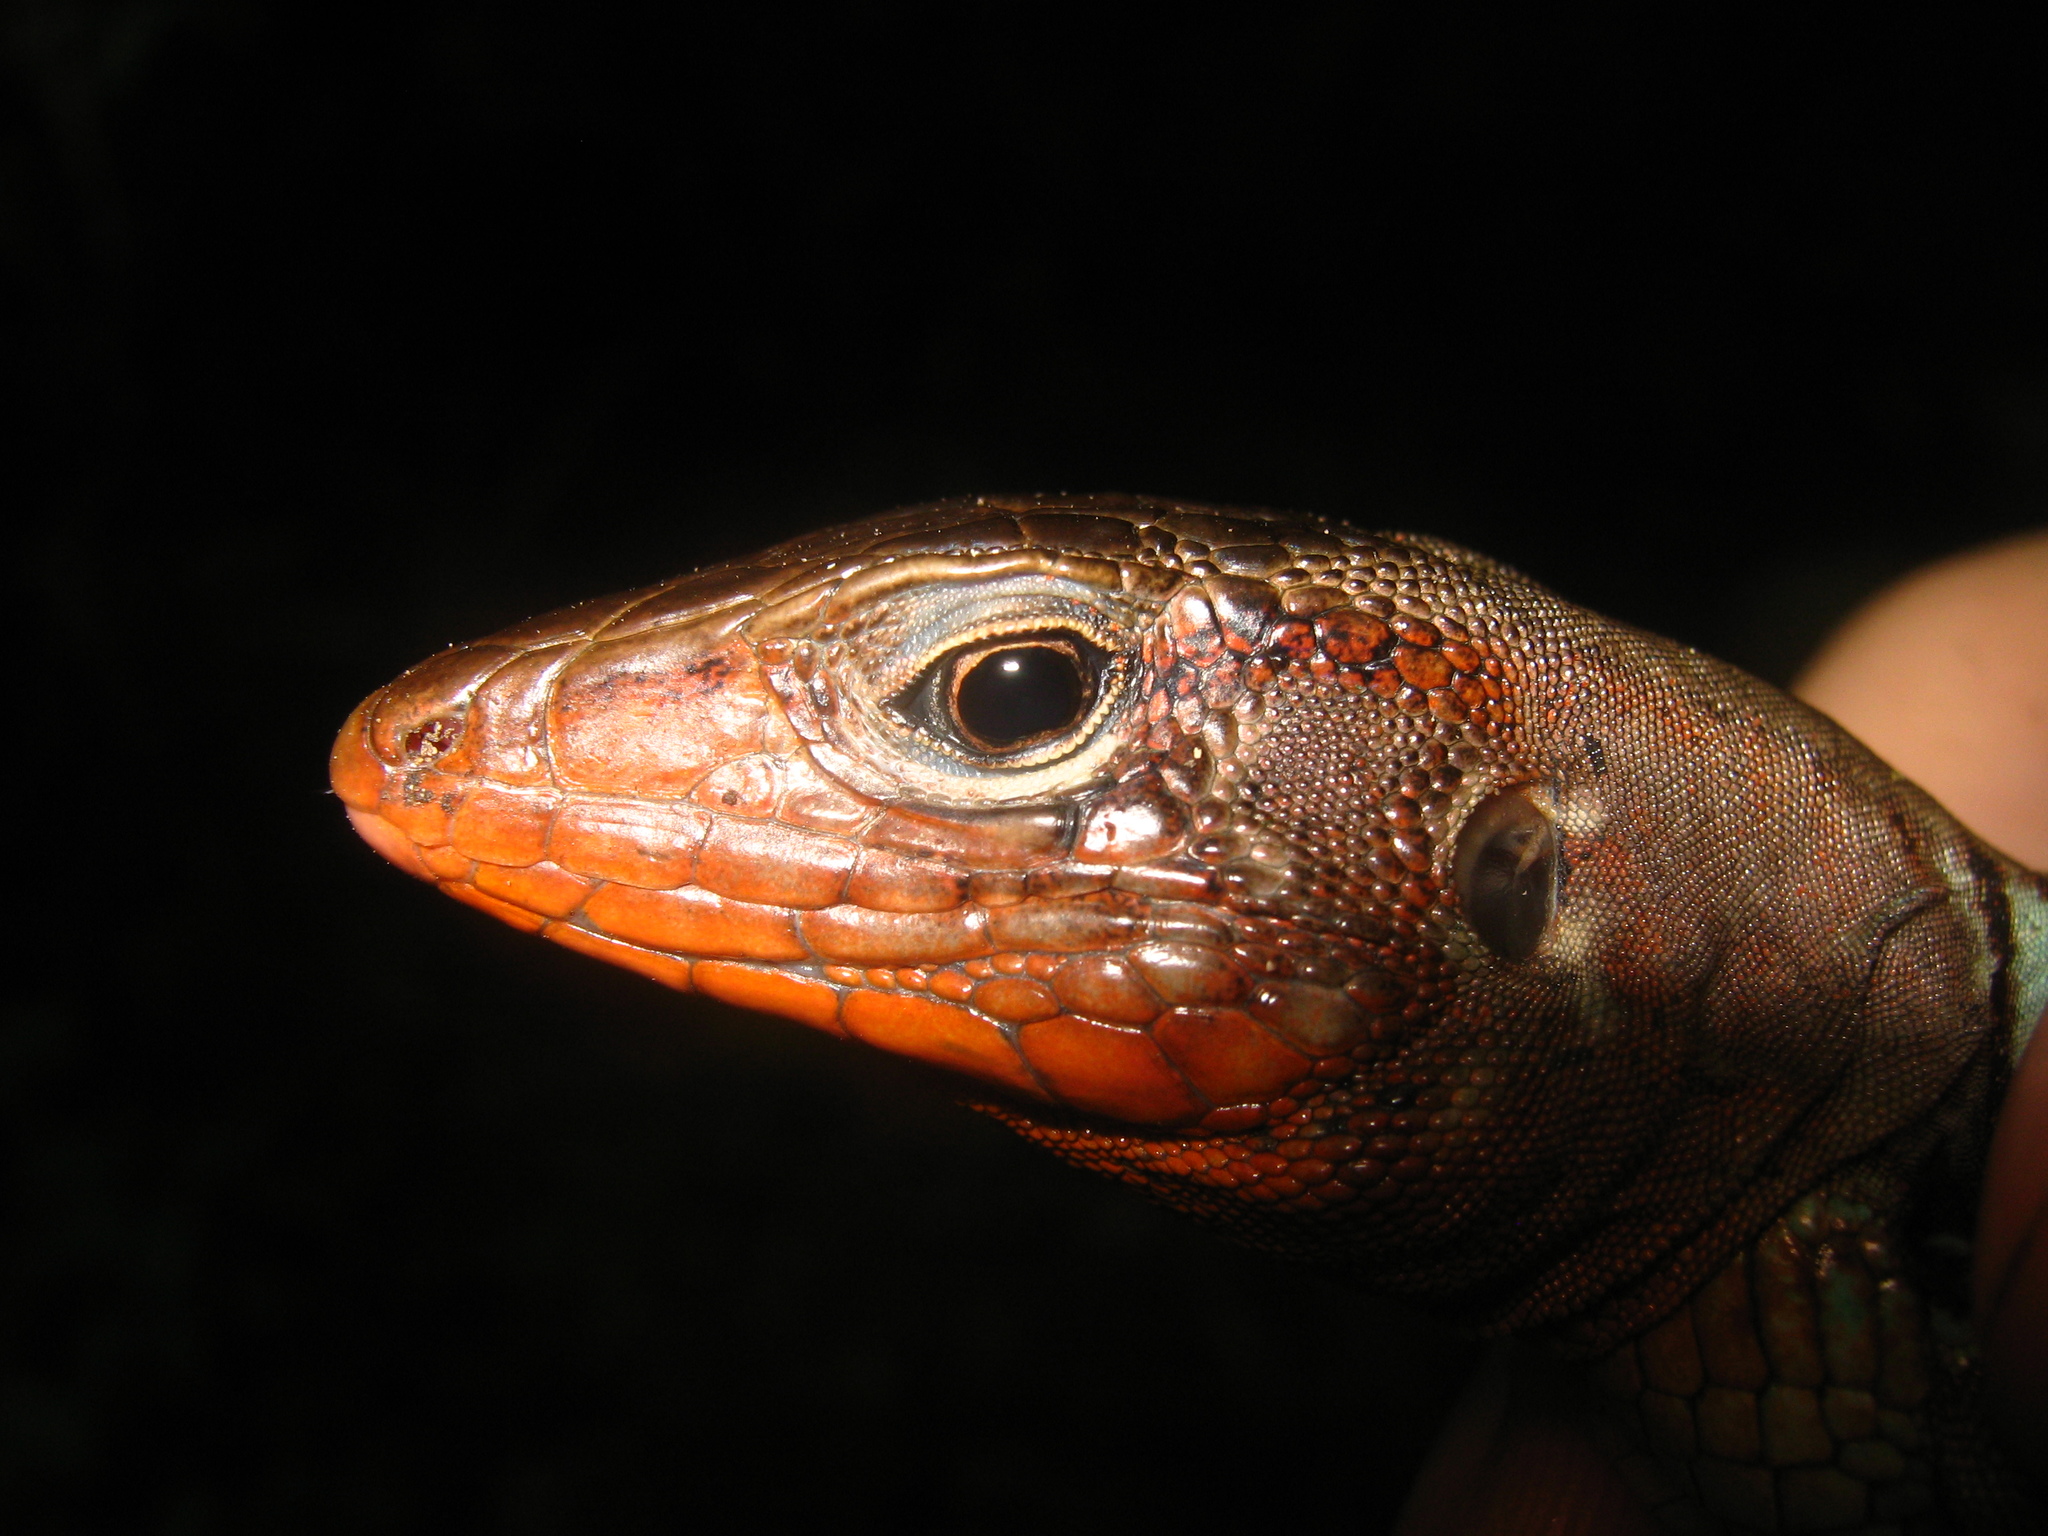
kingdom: Animalia
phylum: Chordata
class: Squamata
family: Teiidae
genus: Holcosus
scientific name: Holcosus sinister
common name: Rainbow ameiva
